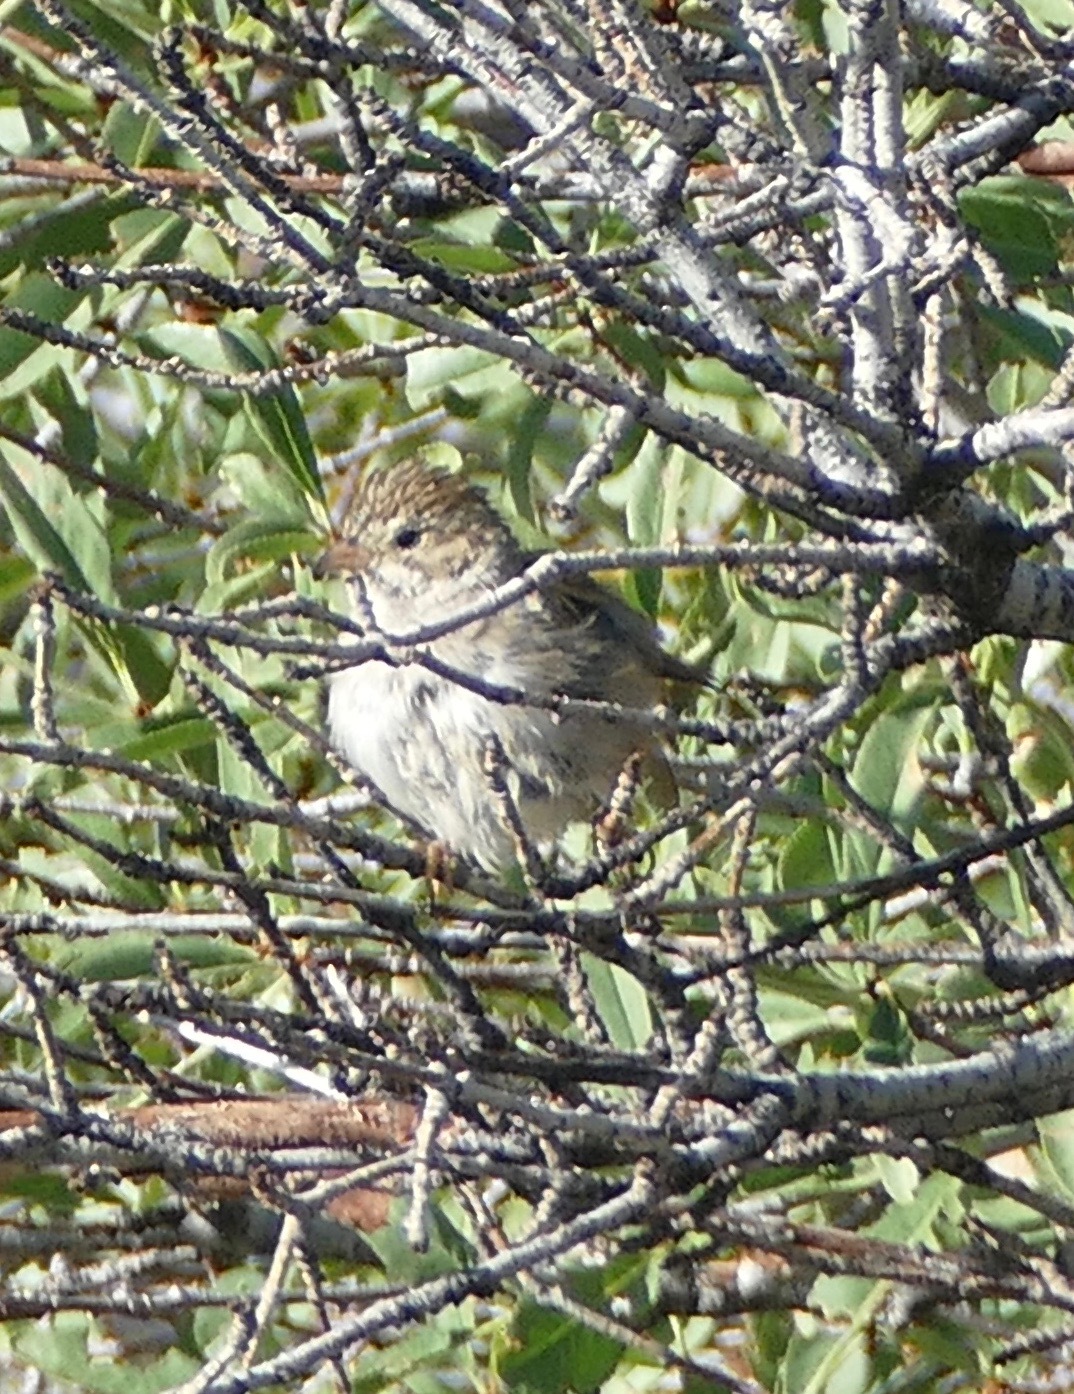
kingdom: Animalia
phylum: Chordata
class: Aves
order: Passeriformes
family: Passerellidae
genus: Spizella
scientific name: Spizella breweri
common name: Brewer's sparrow
